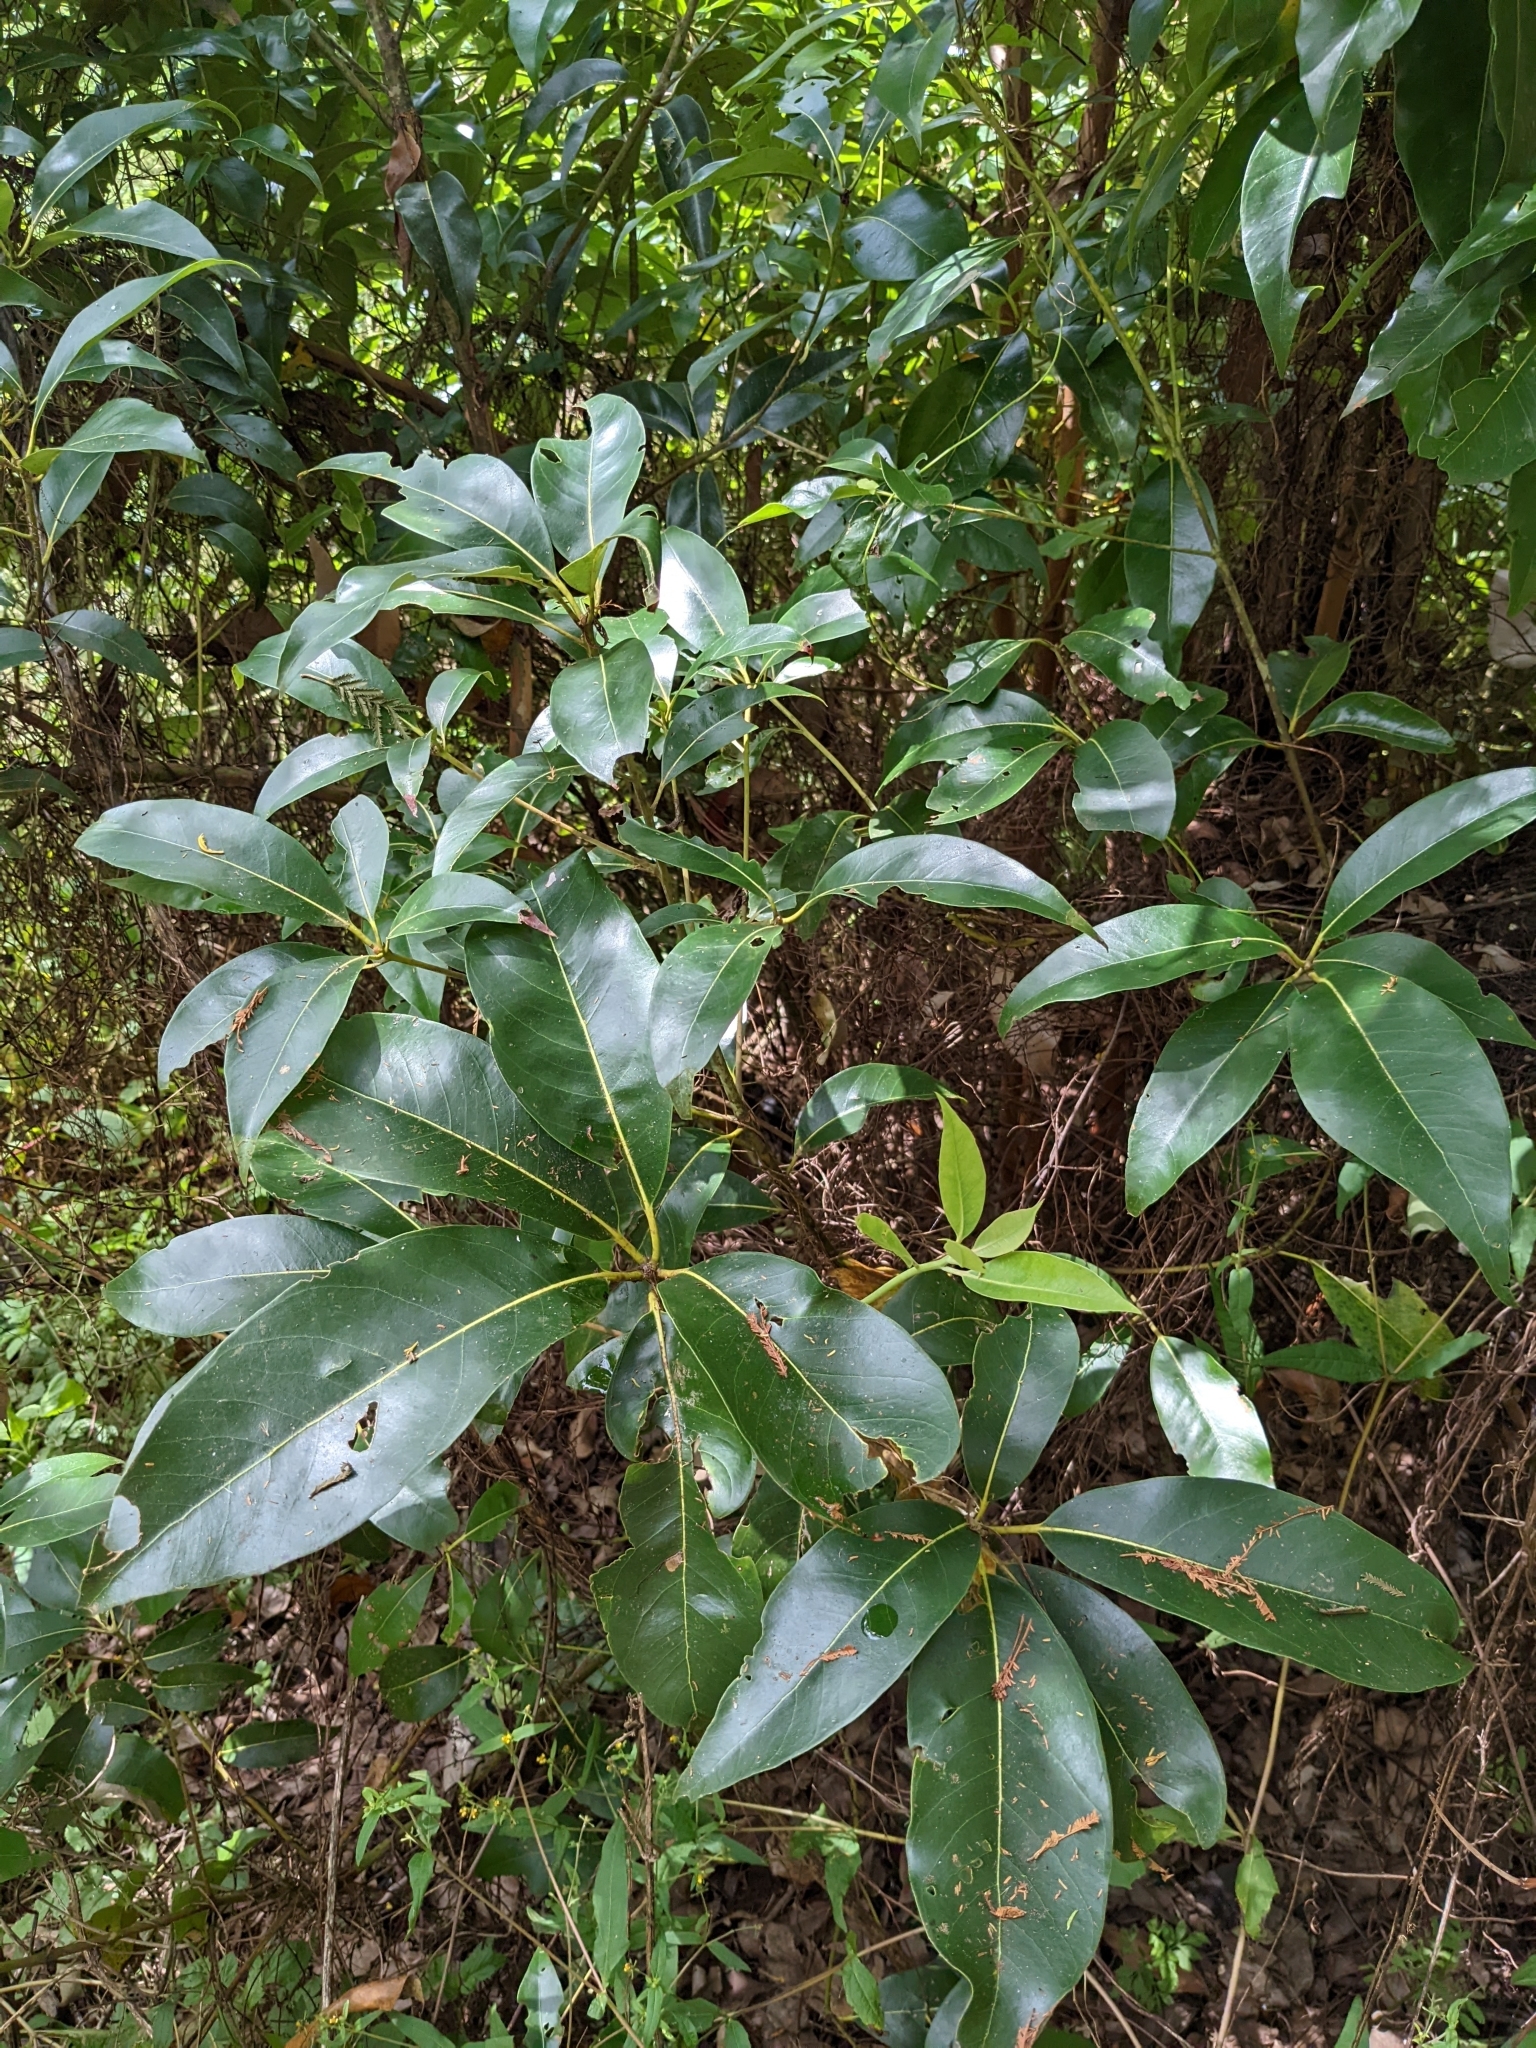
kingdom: Plantae
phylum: Tracheophyta
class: Magnoliopsida
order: Myrtales
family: Myrtaceae
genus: Lophostemon
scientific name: Lophostemon confertus
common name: Brisbane box
